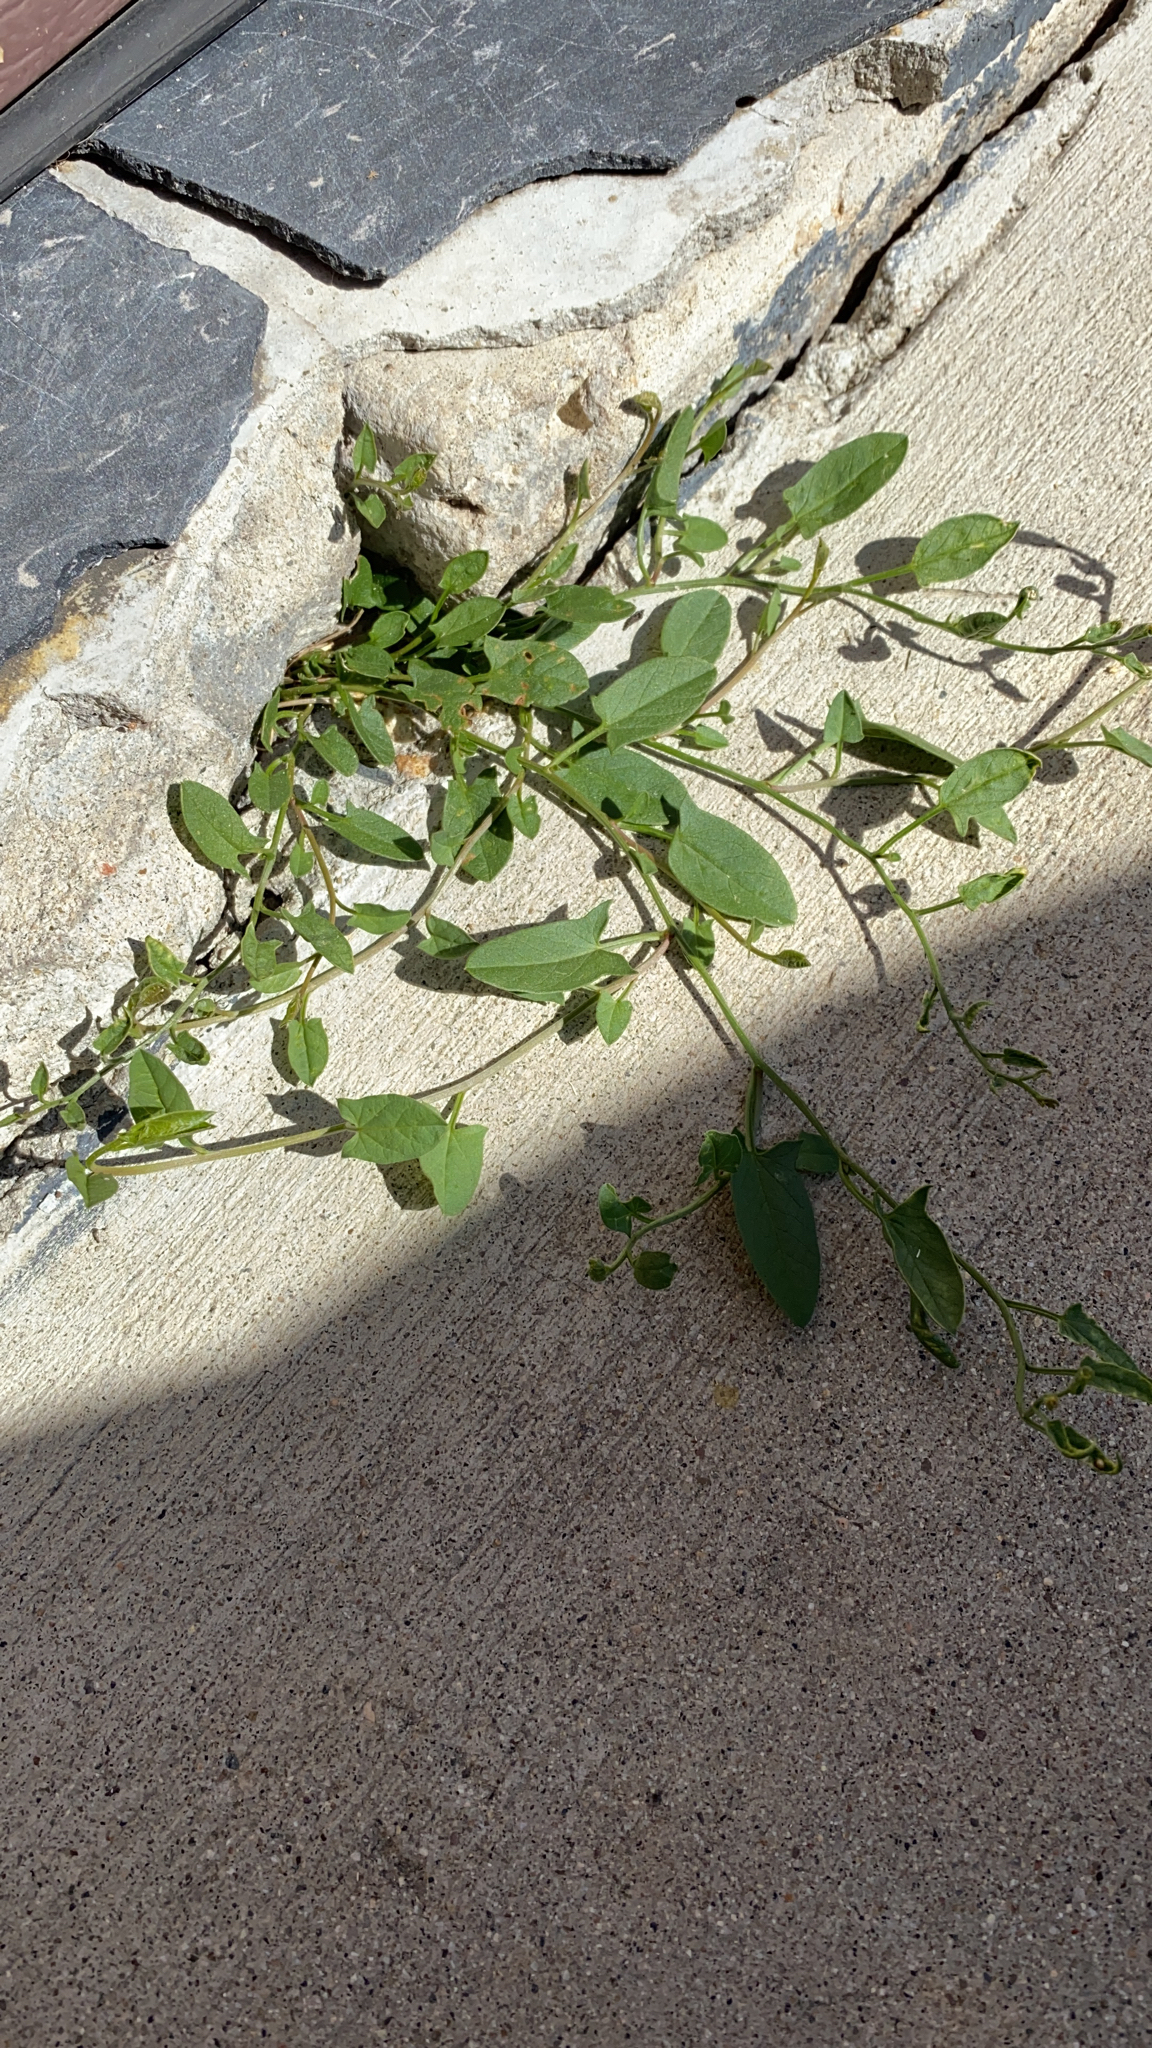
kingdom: Plantae
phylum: Tracheophyta
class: Magnoliopsida
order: Solanales
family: Convolvulaceae
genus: Convolvulus
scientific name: Convolvulus arvensis
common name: Field bindweed
